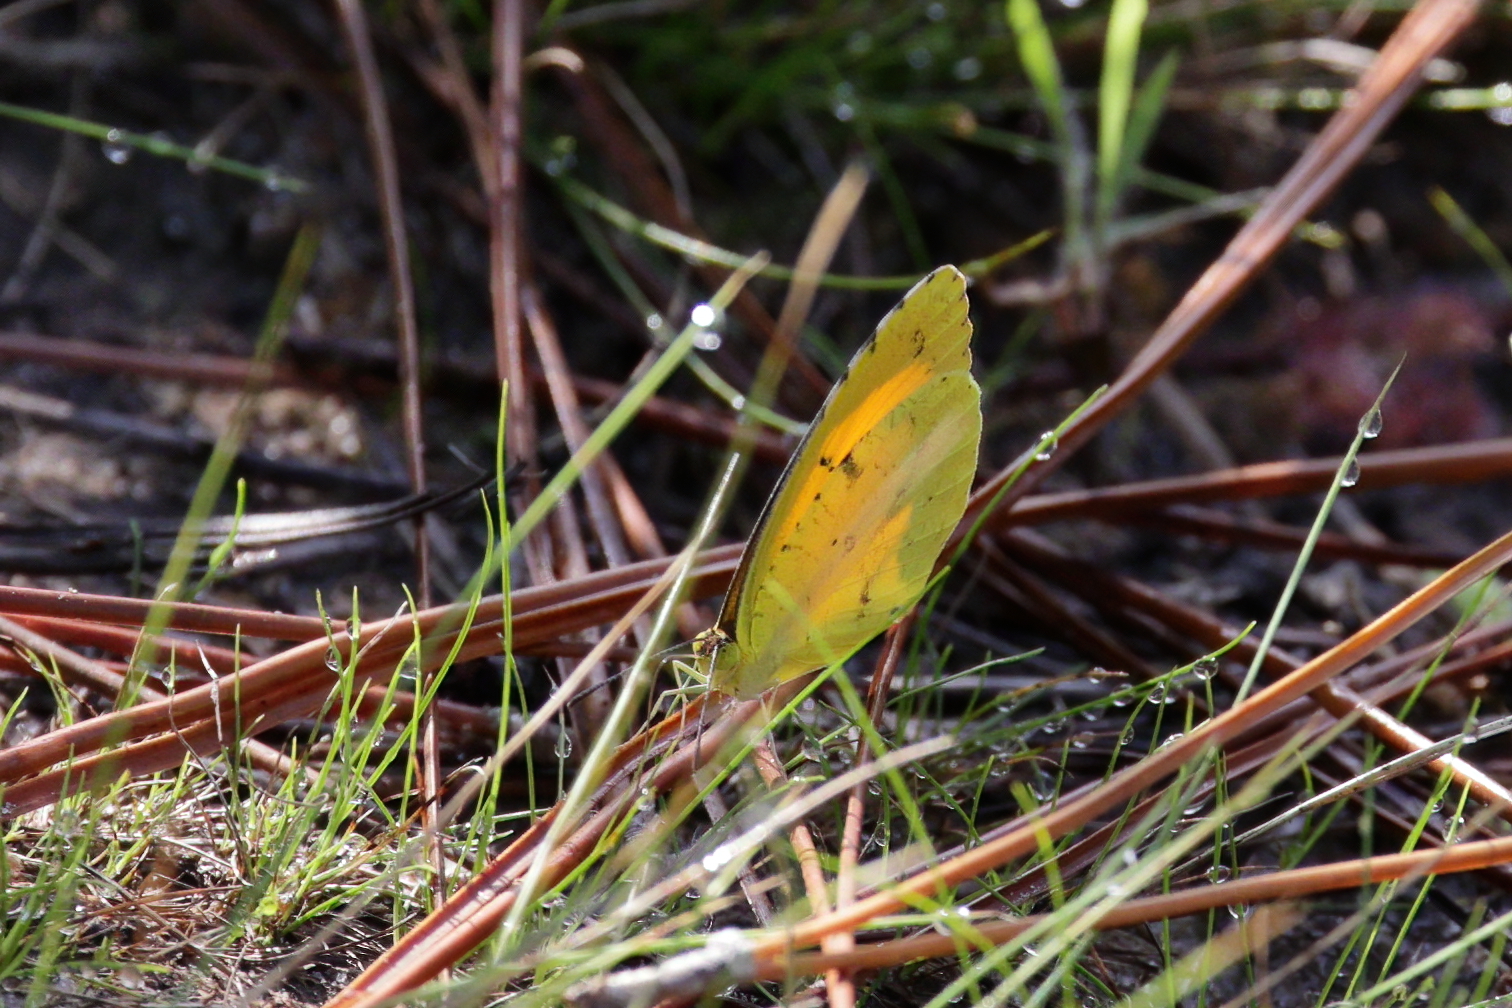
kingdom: Animalia
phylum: Arthropoda
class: Insecta
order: Lepidoptera
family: Pieridae
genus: Abaeis
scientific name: Abaeis nicippe
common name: Sleepy orange
